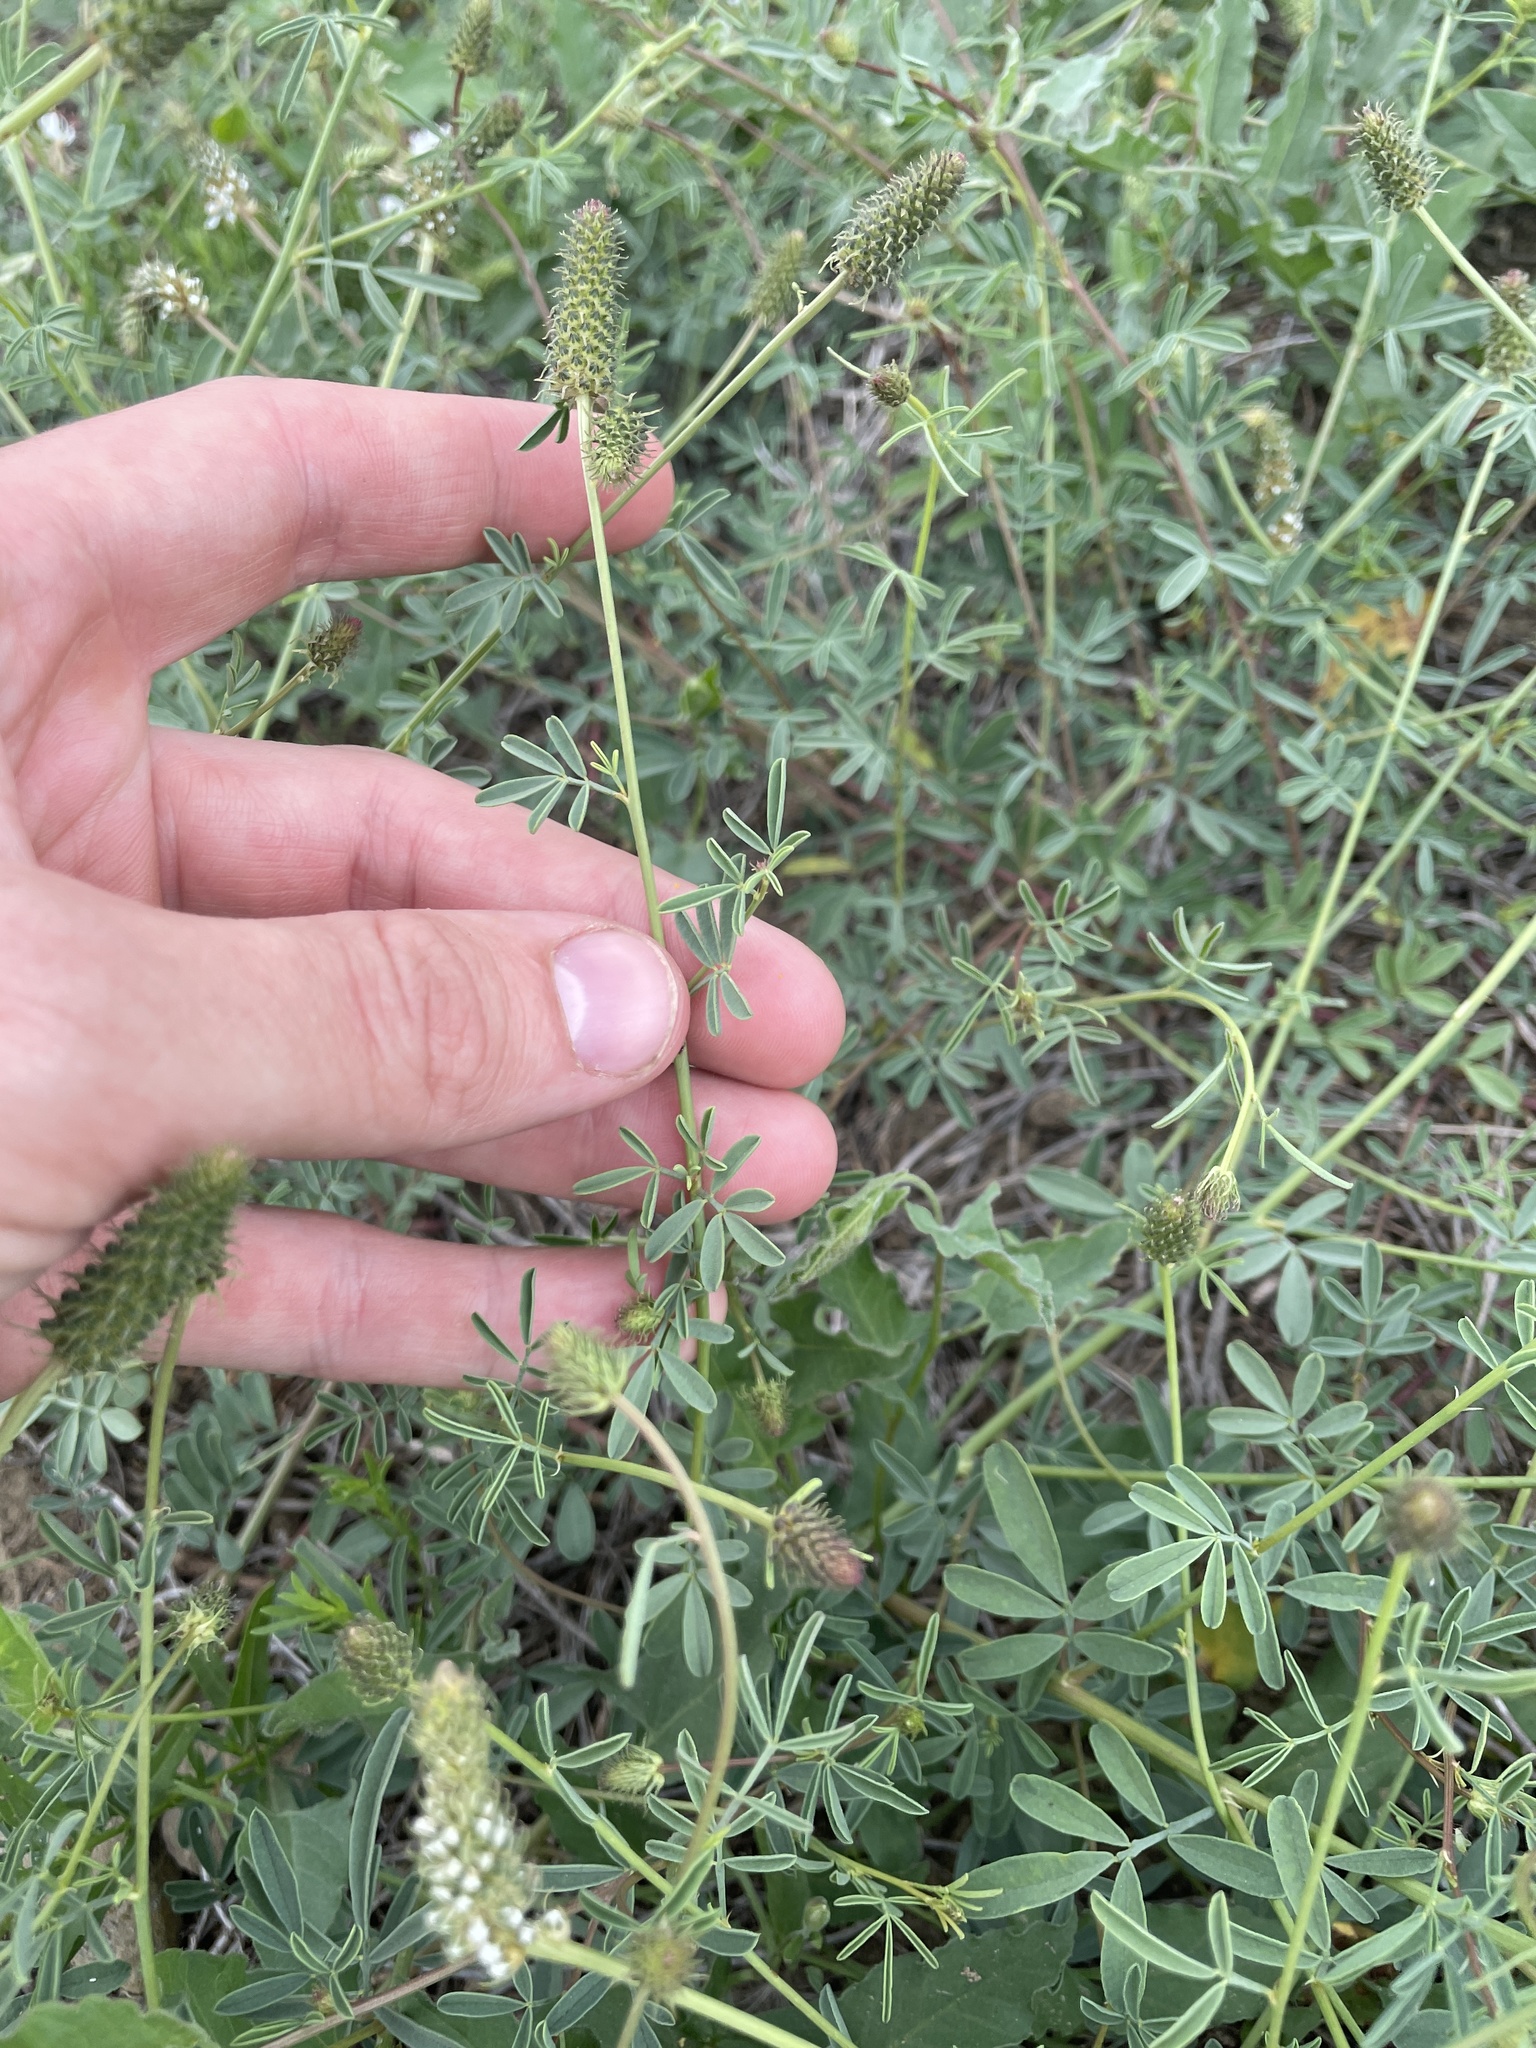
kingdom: Plantae
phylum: Tracheophyta
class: Magnoliopsida
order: Fabales
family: Fabaceae
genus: Dalea
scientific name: Dalea candida
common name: White prairie-clover
